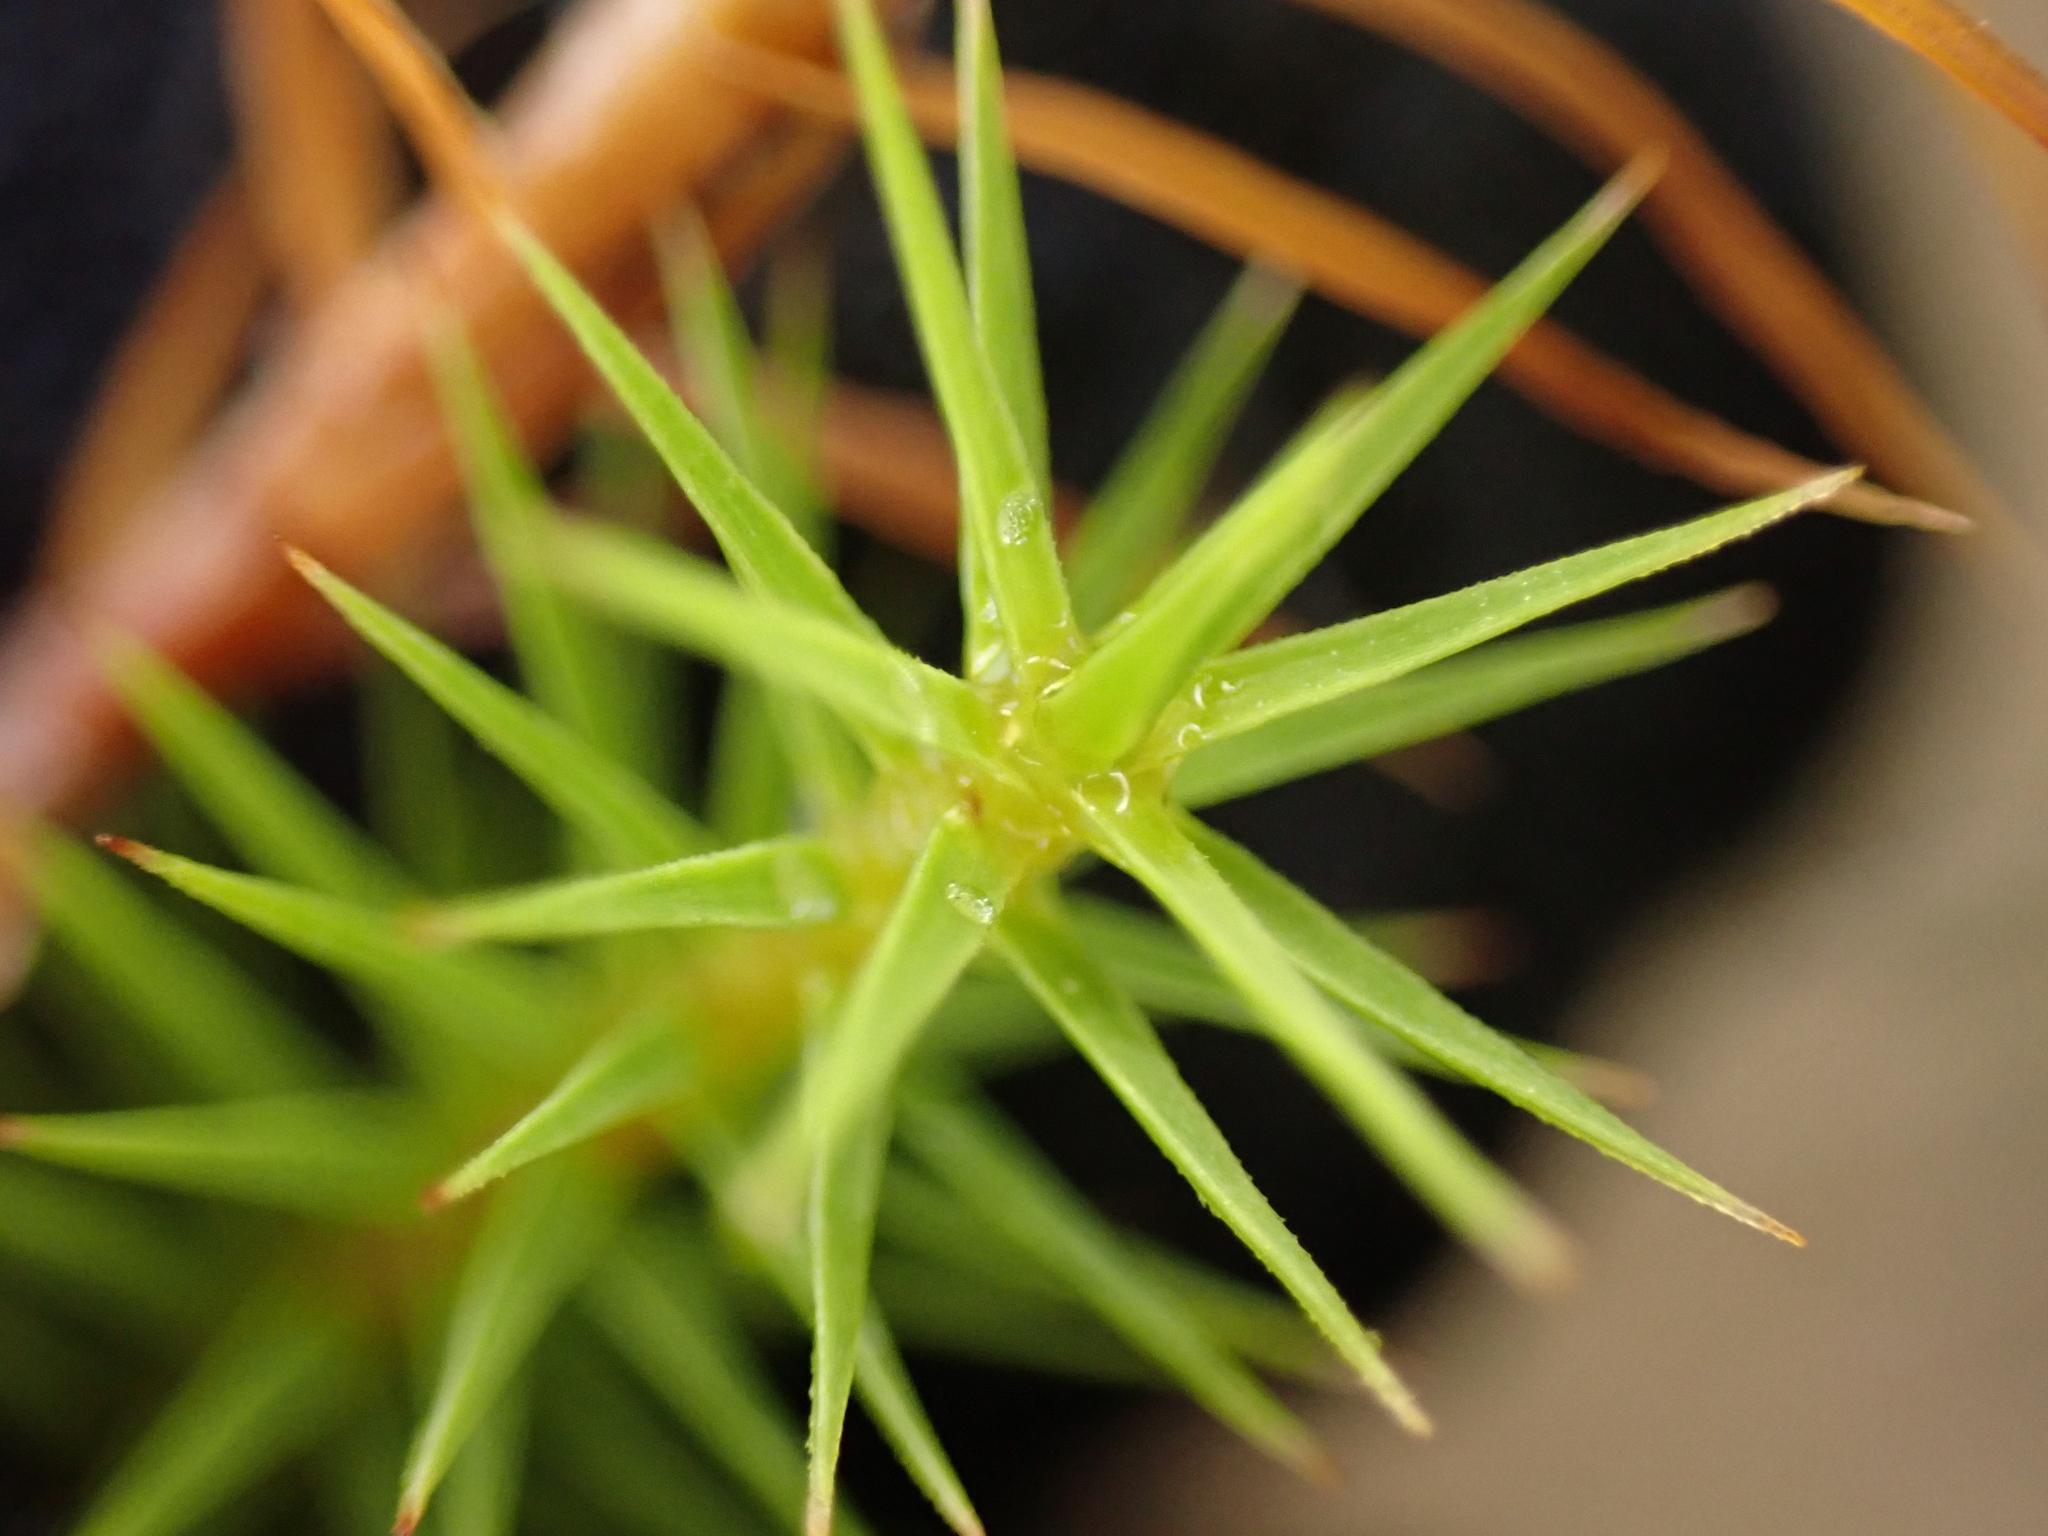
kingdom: Plantae
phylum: Bryophyta
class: Polytrichopsida
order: Polytrichales
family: Polytrichaceae
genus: Polytrichum
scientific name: Polytrichum commune
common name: Common haircap
